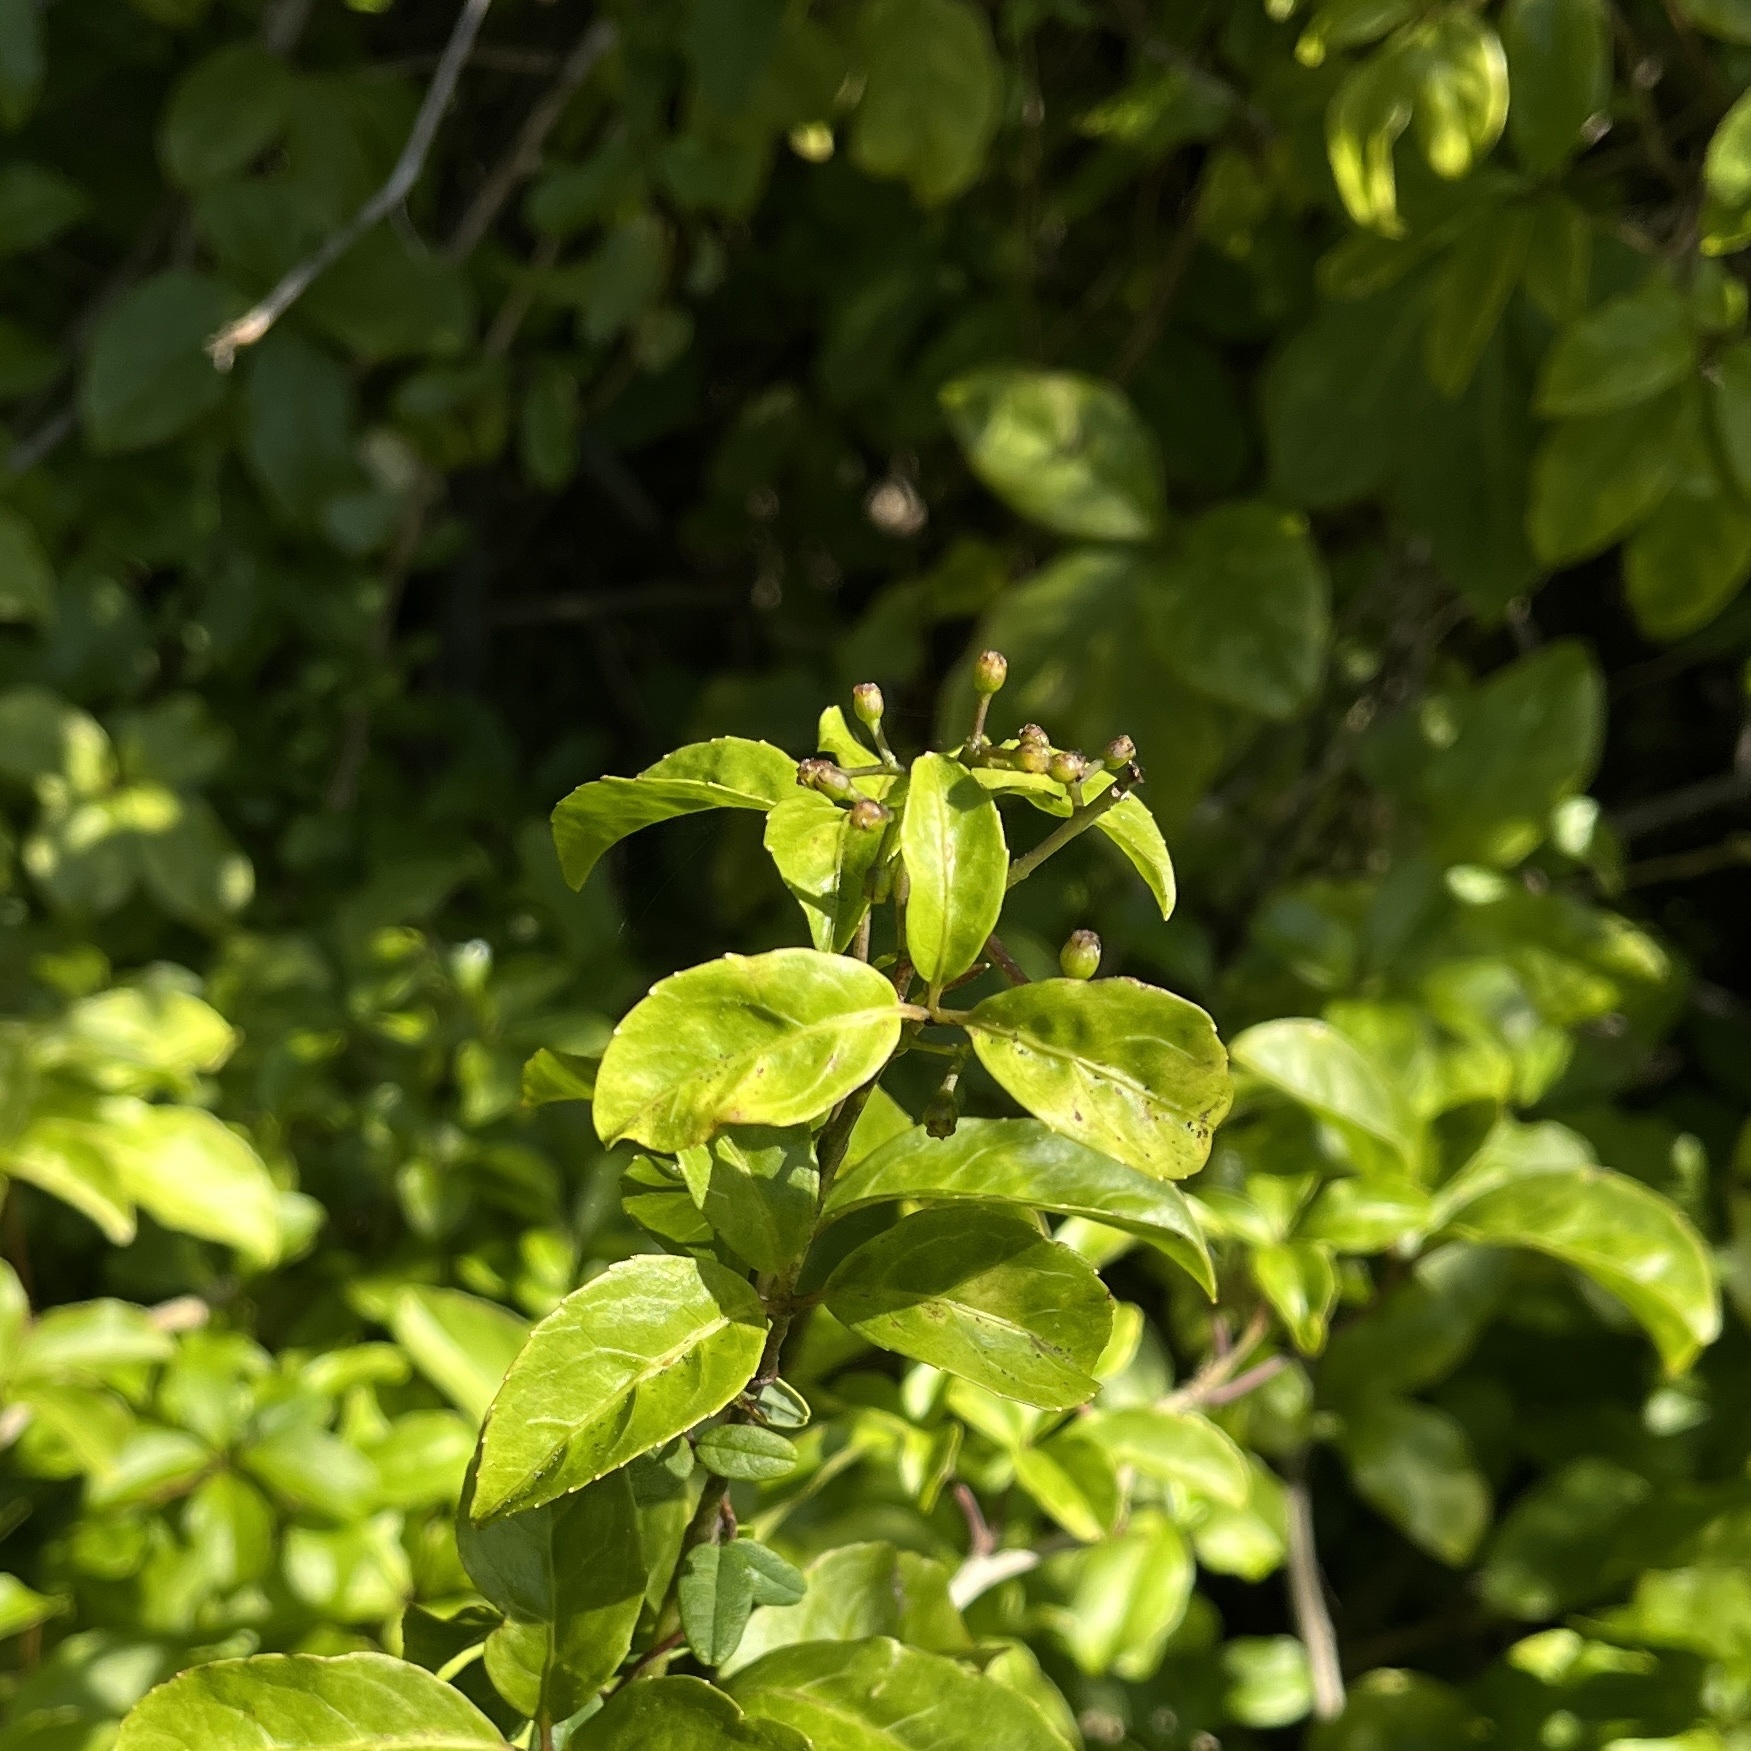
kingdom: Plantae
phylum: Tracheophyta
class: Magnoliopsida
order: Apiales
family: Araliaceae
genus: Raukaua
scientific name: Raukaua valdiviensis
